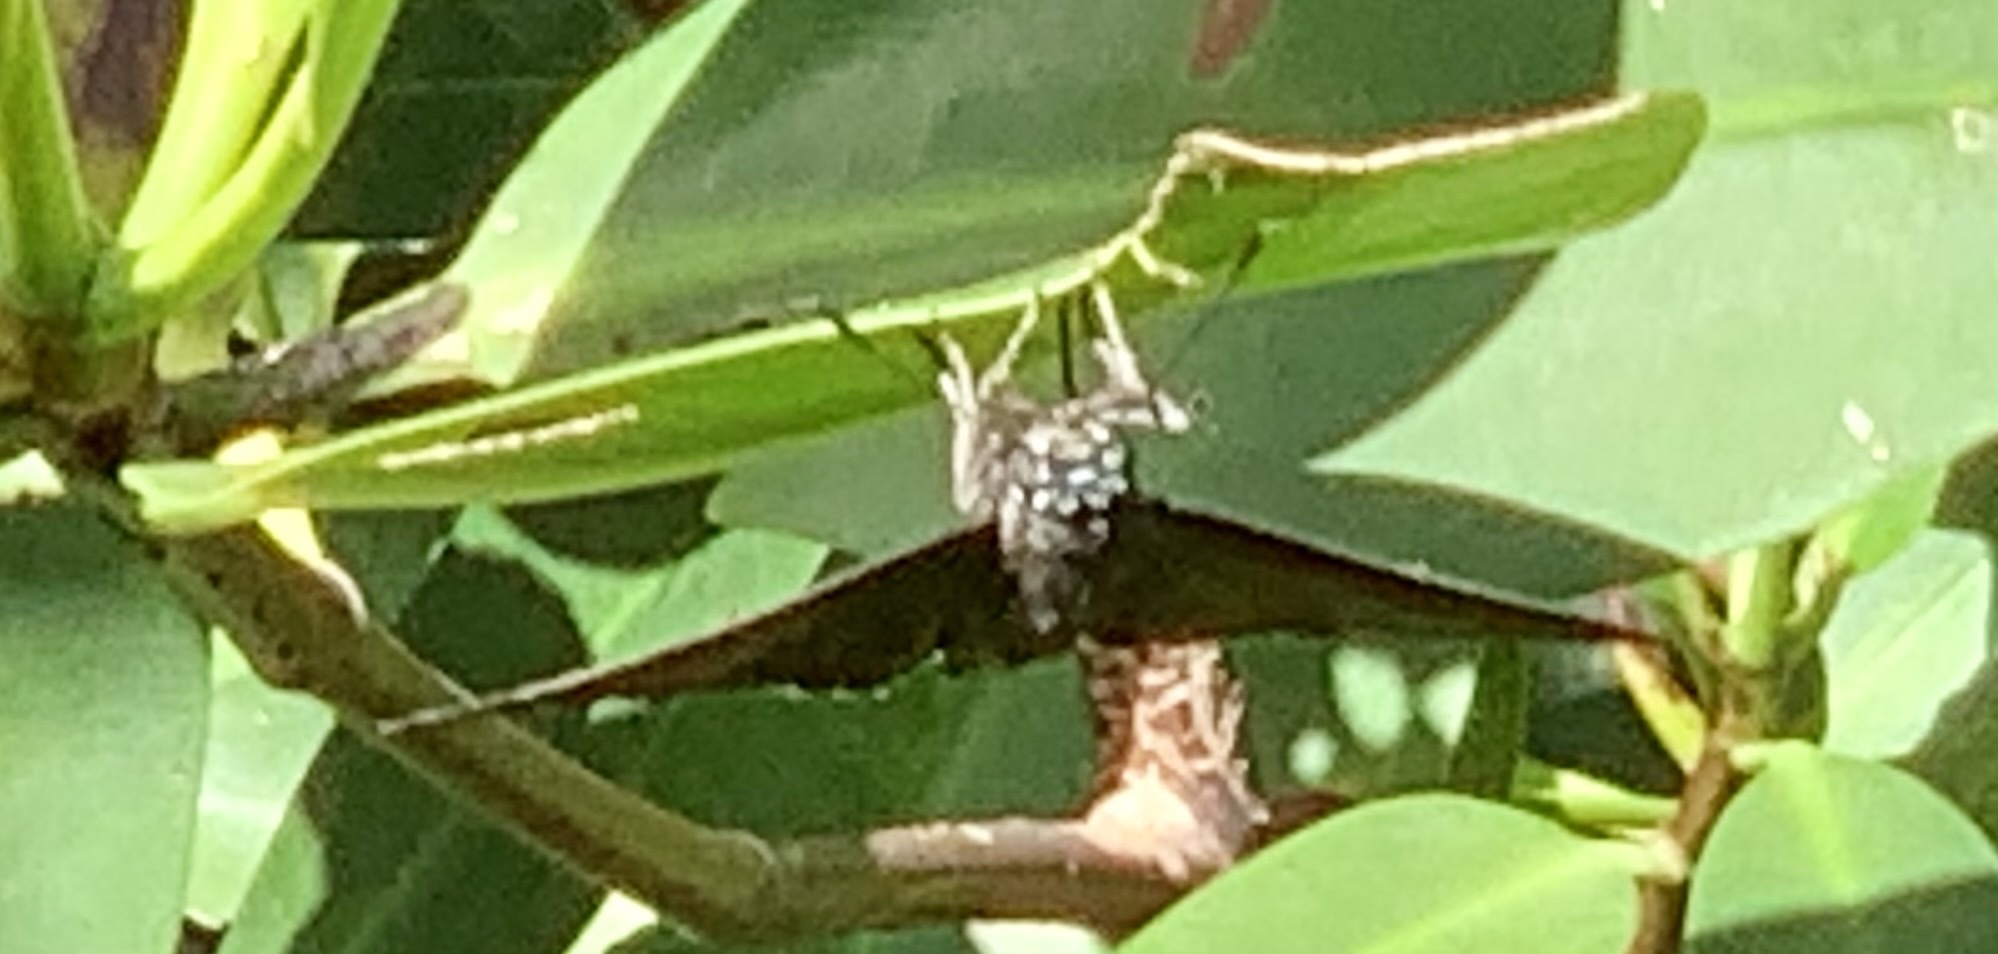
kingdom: Animalia
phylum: Arthropoda
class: Insecta
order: Lepidoptera
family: Hesperiidae
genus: Phocides
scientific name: Phocides pigmalion
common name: Mangrove skipper
